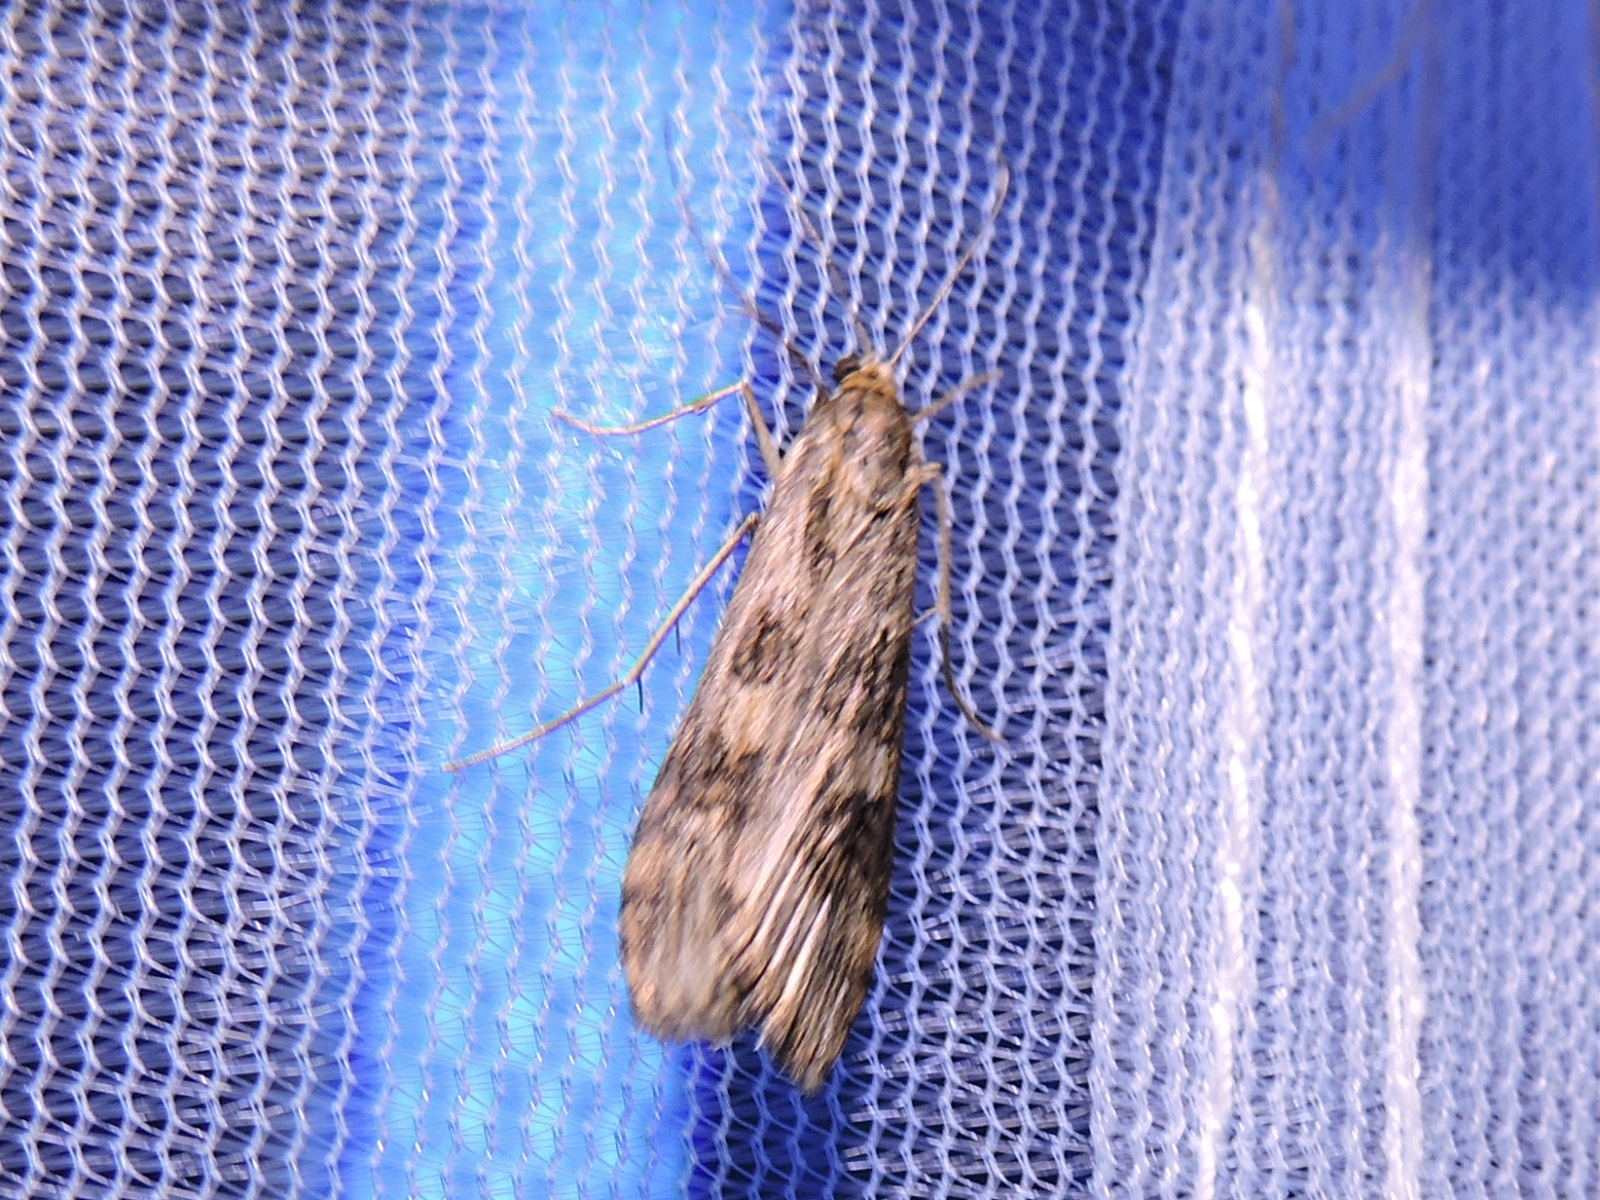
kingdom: Animalia
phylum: Arthropoda
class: Insecta
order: Lepidoptera
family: Crambidae
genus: Nomophila
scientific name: Nomophila nearctica
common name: American rush veneer
